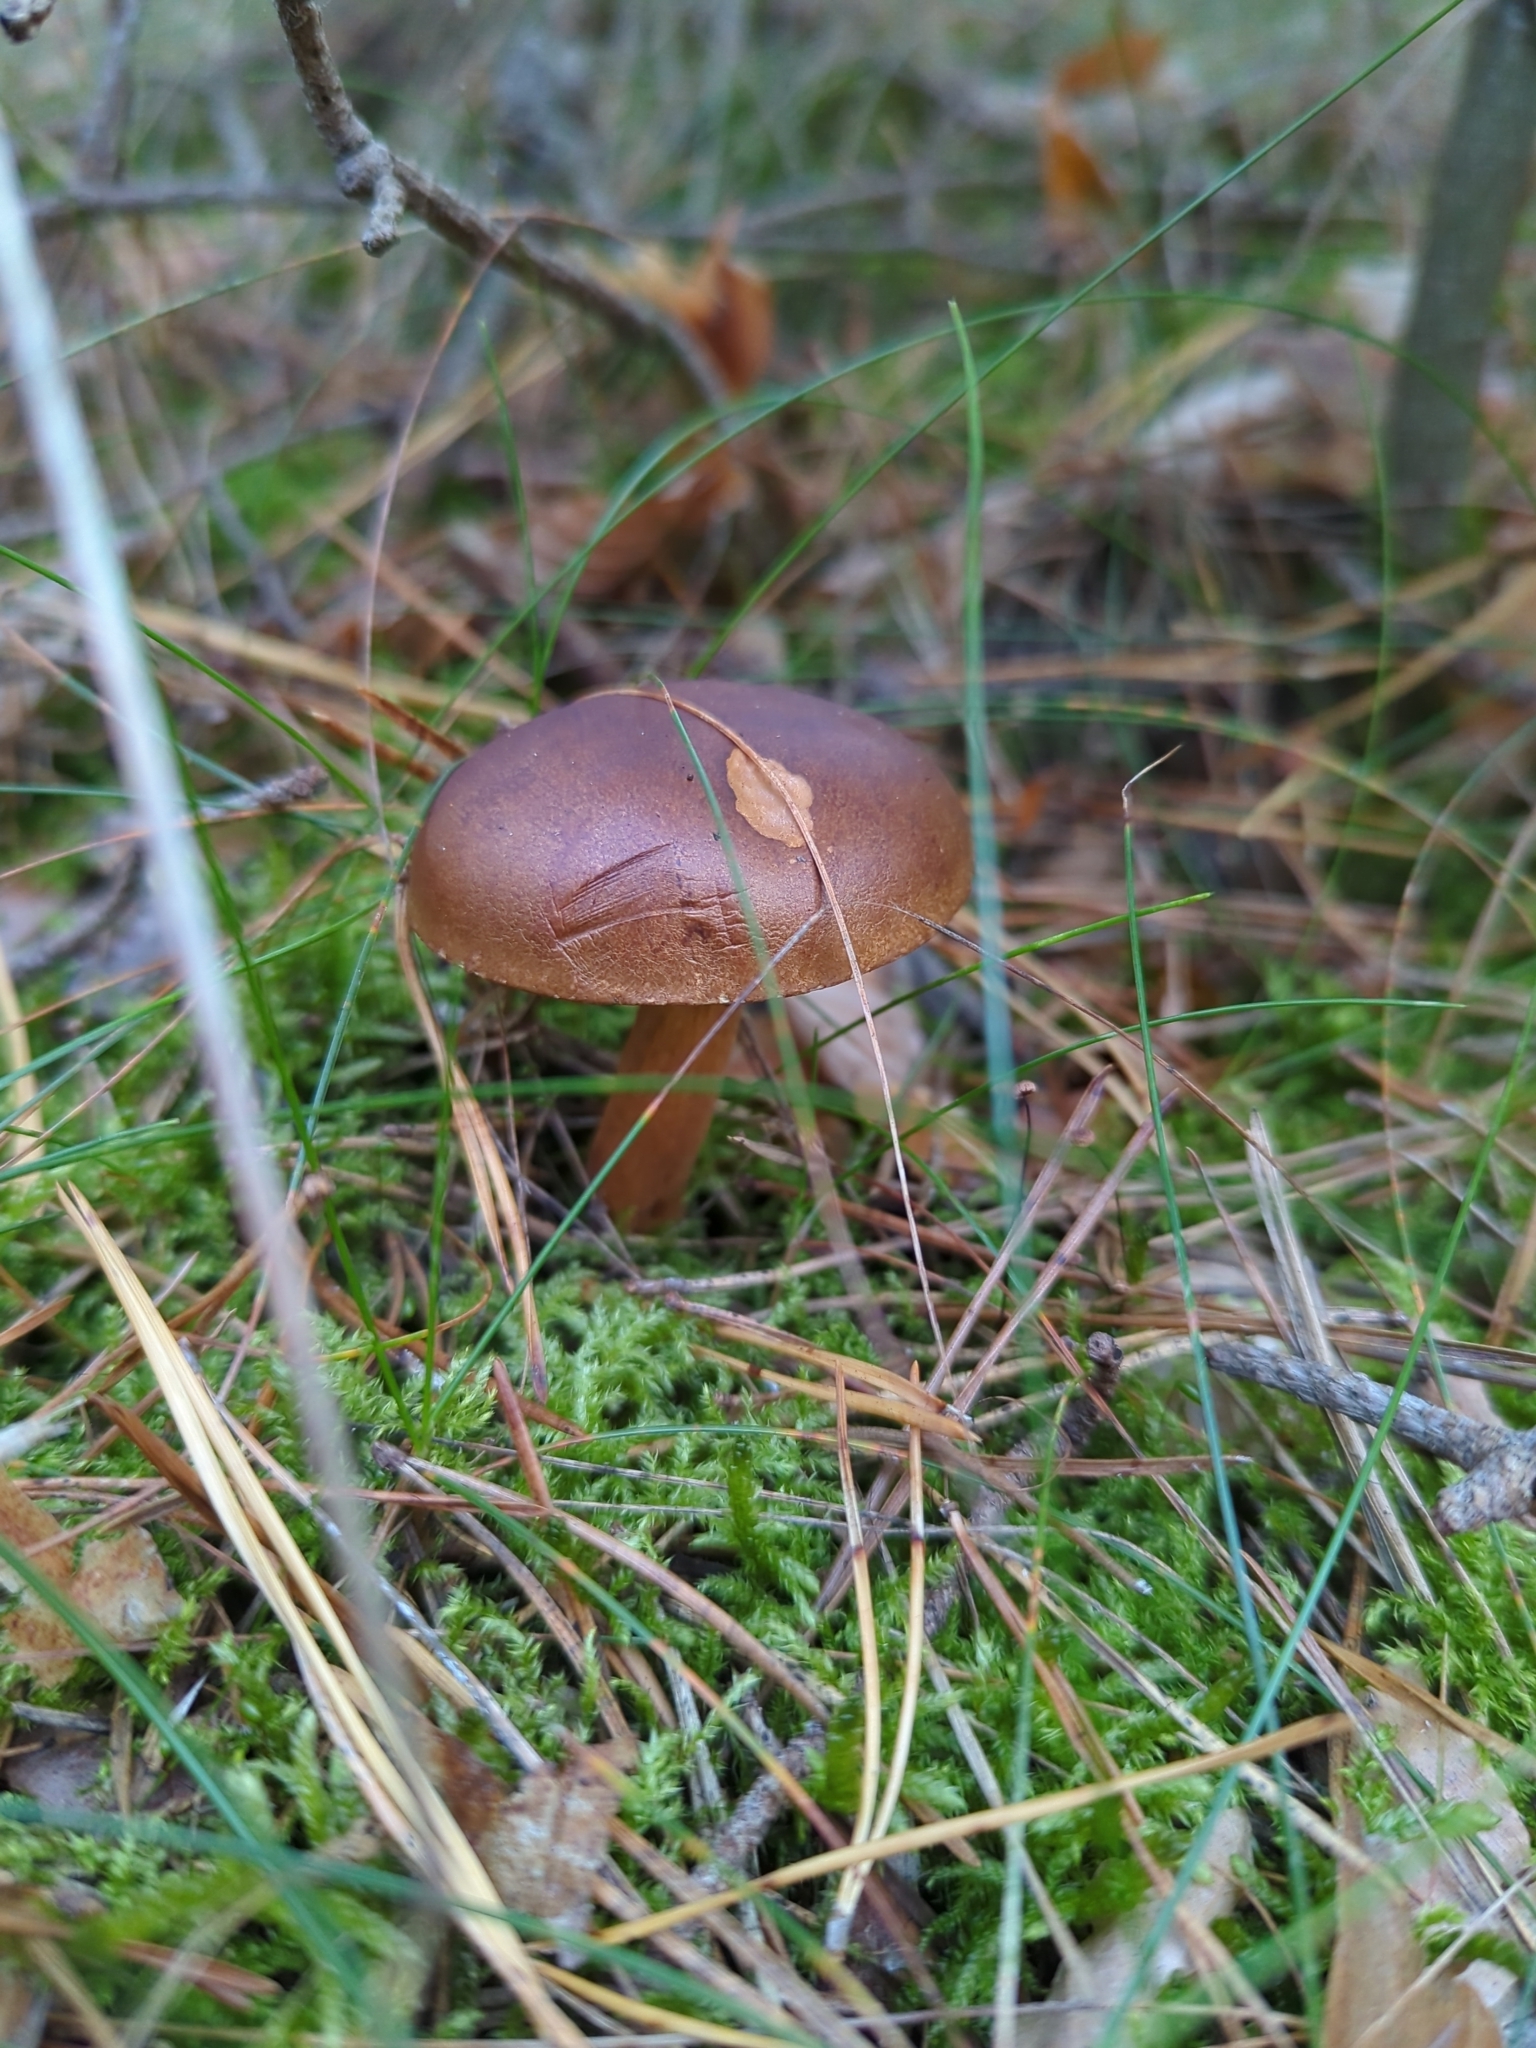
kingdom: Fungi
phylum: Basidiomycota
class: Agaricomycetes
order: Boletales
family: Boletaceae
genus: Imleria
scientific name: Imleria badia
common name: Bay bolete
